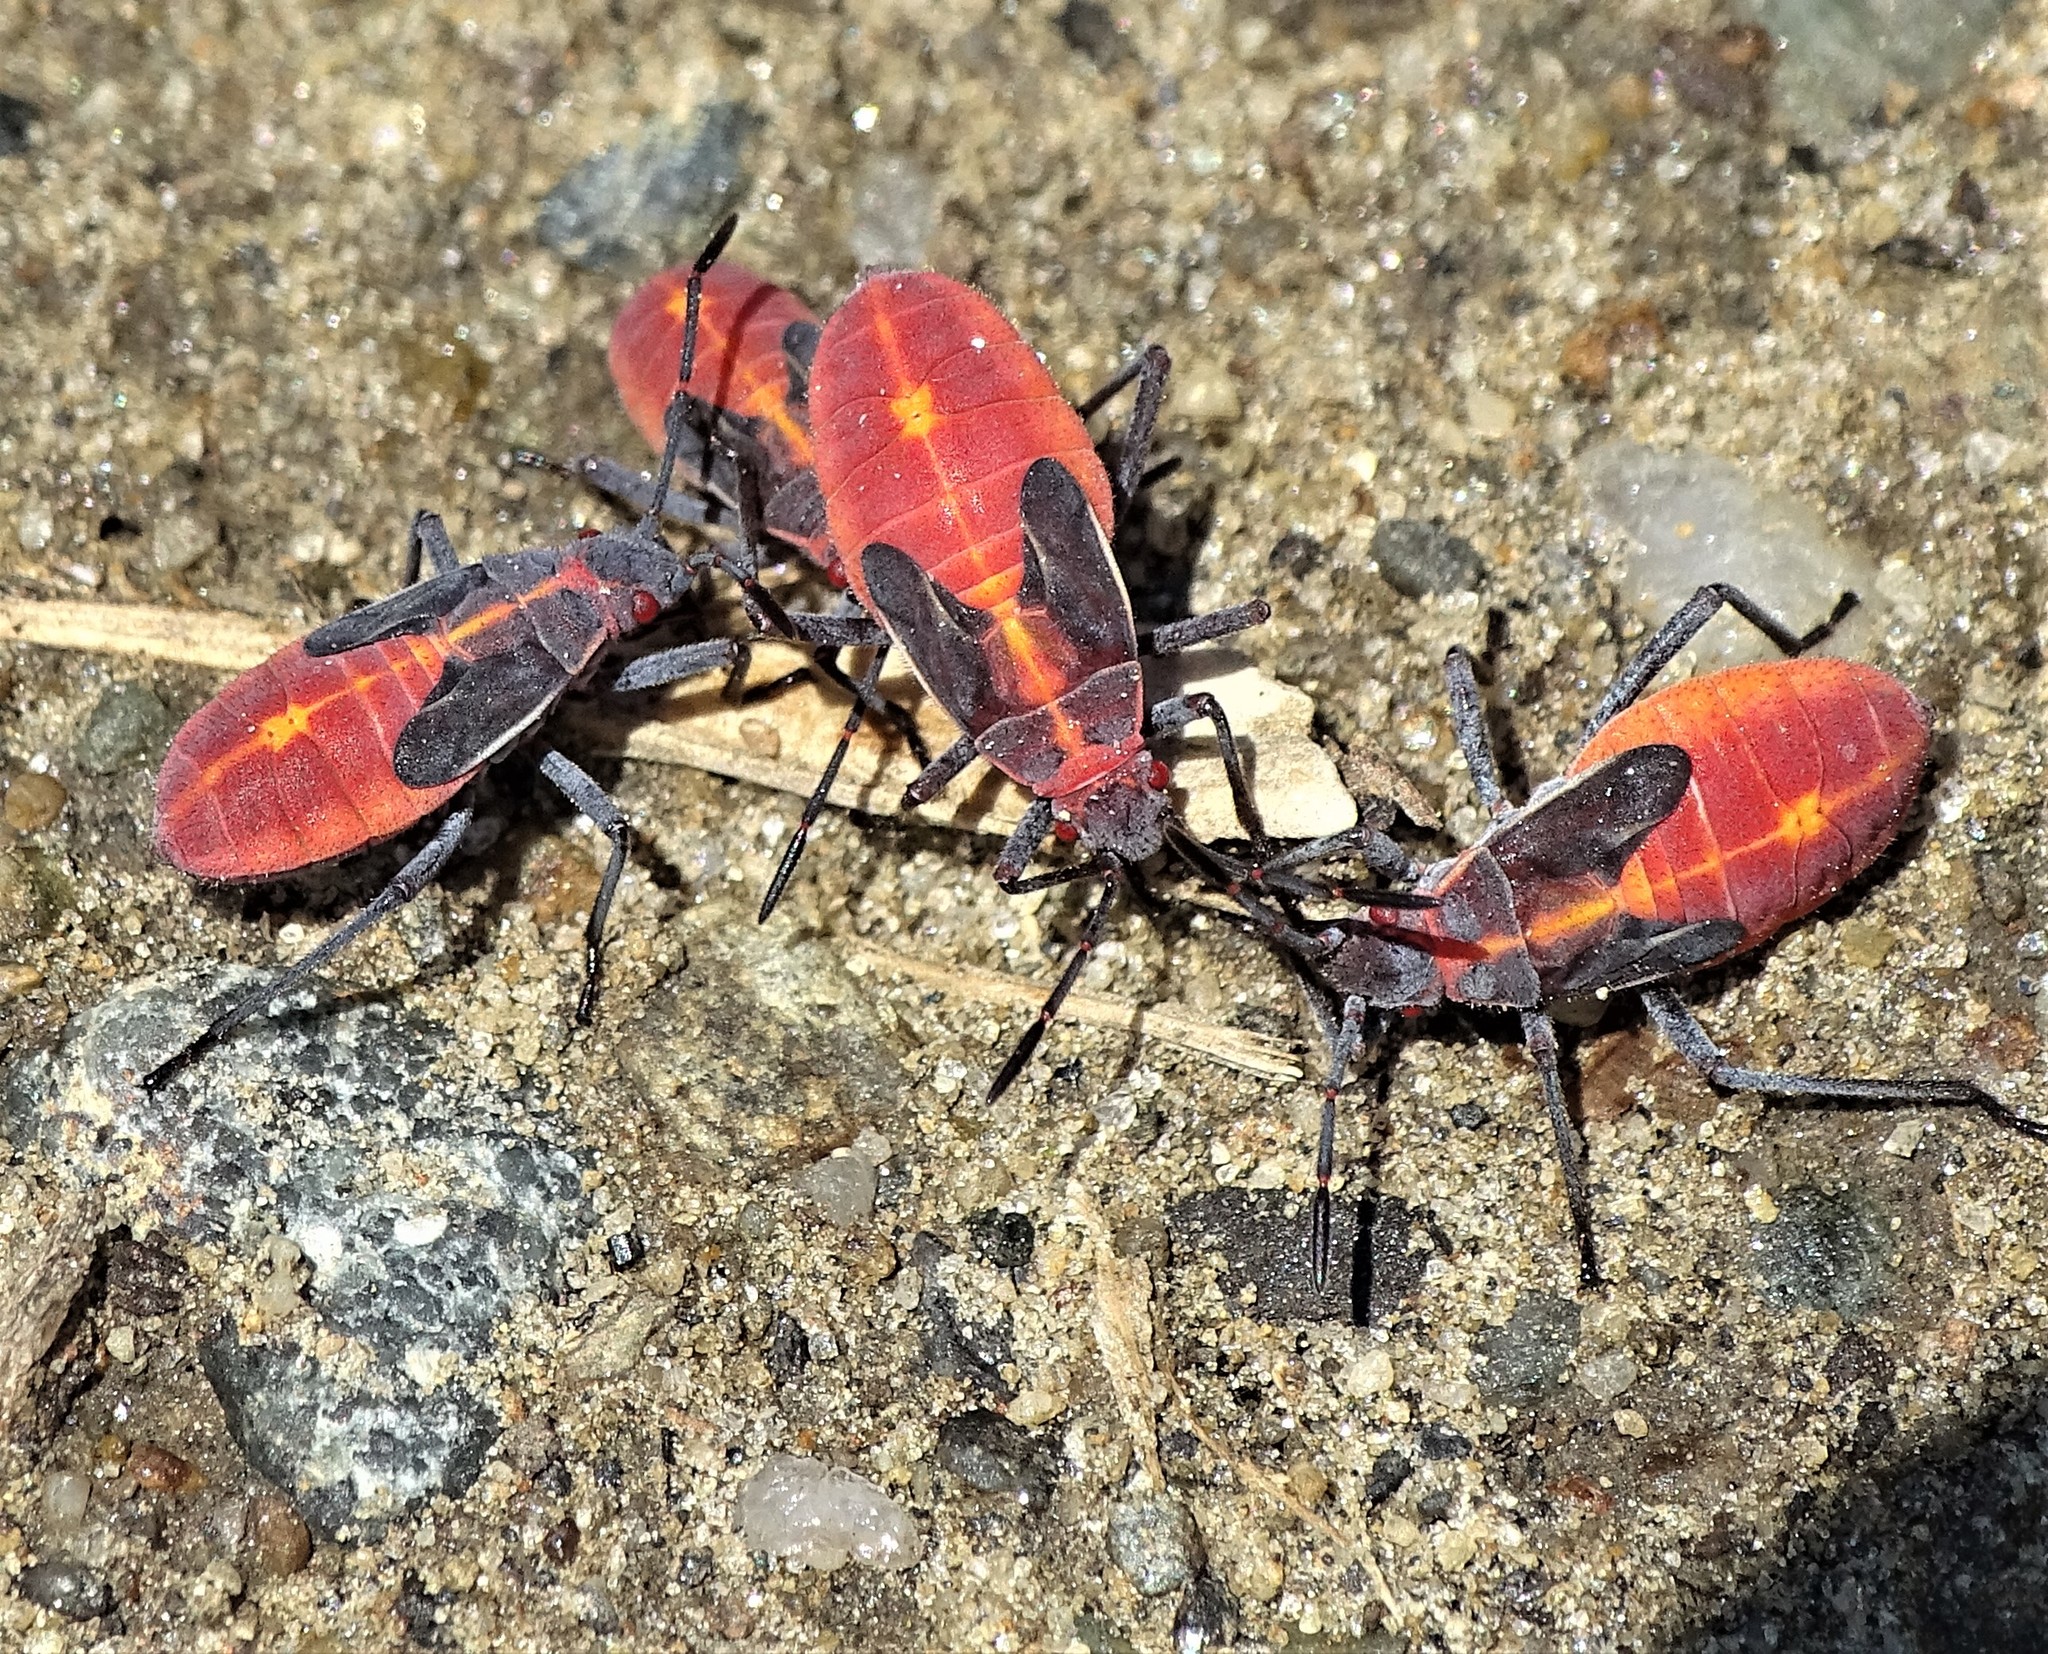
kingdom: Animalia
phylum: Arthropoda
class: Insecta
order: Hemiptera
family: Rhopalidae
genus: Boisea
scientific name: Boisea trivittata
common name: Boxelder bug
